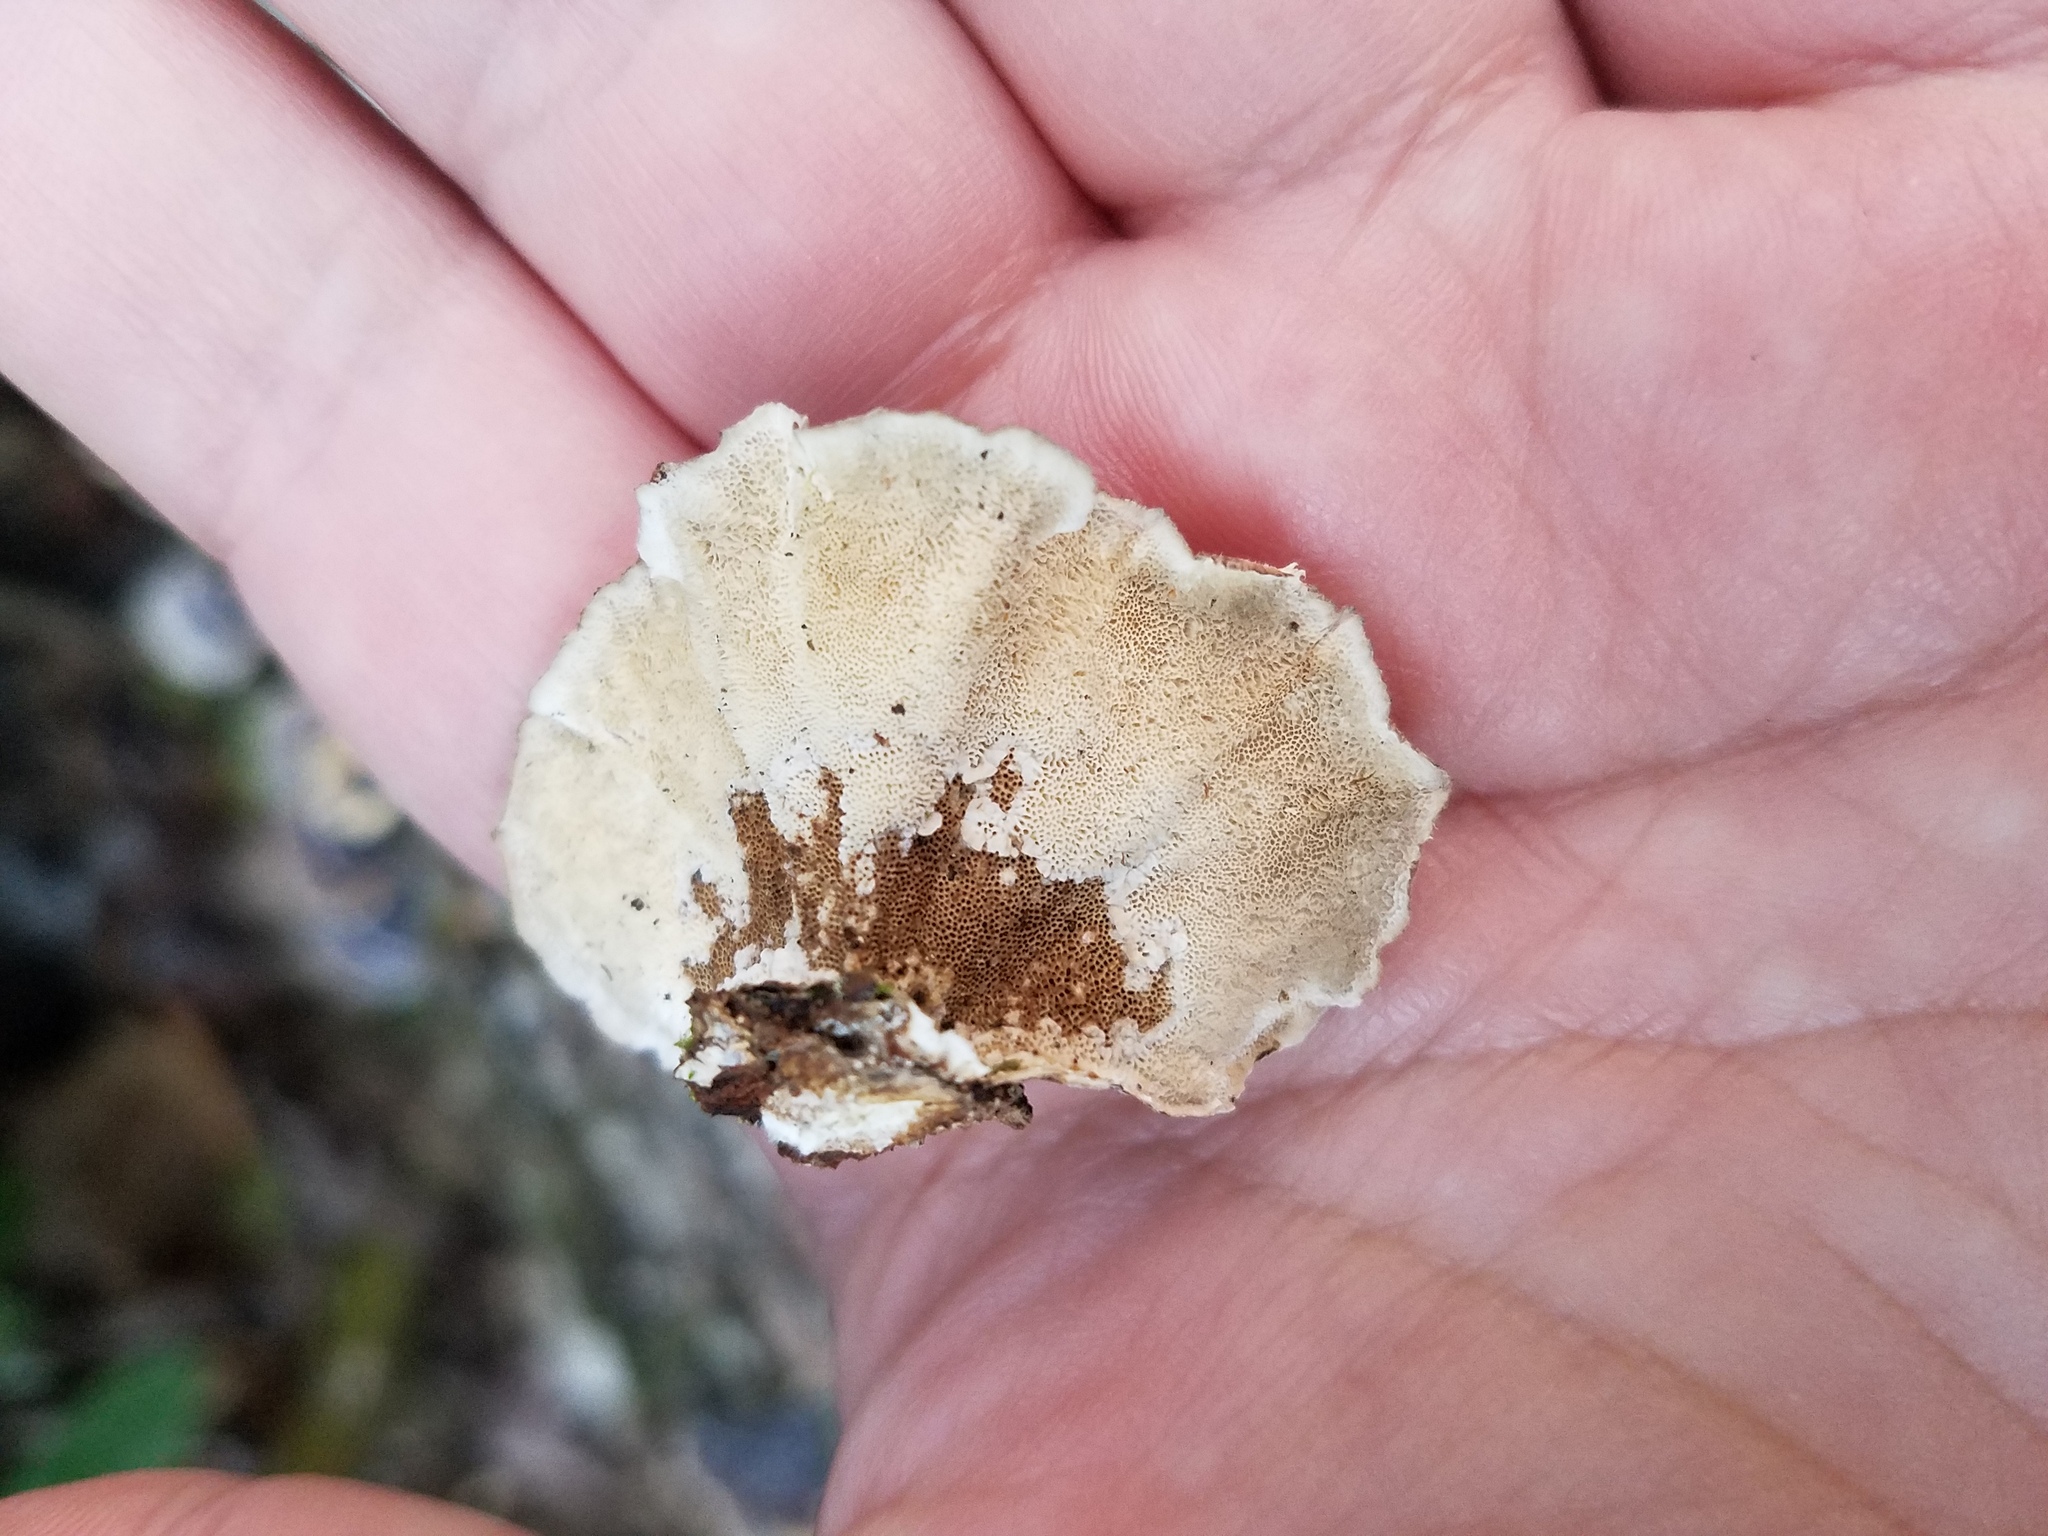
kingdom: Fungi
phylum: Basidiomycota
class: Agaricomycetes
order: Polyporales
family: Polyporaceae
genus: Trametes
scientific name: Trametes versicolor
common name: Turkeytail
